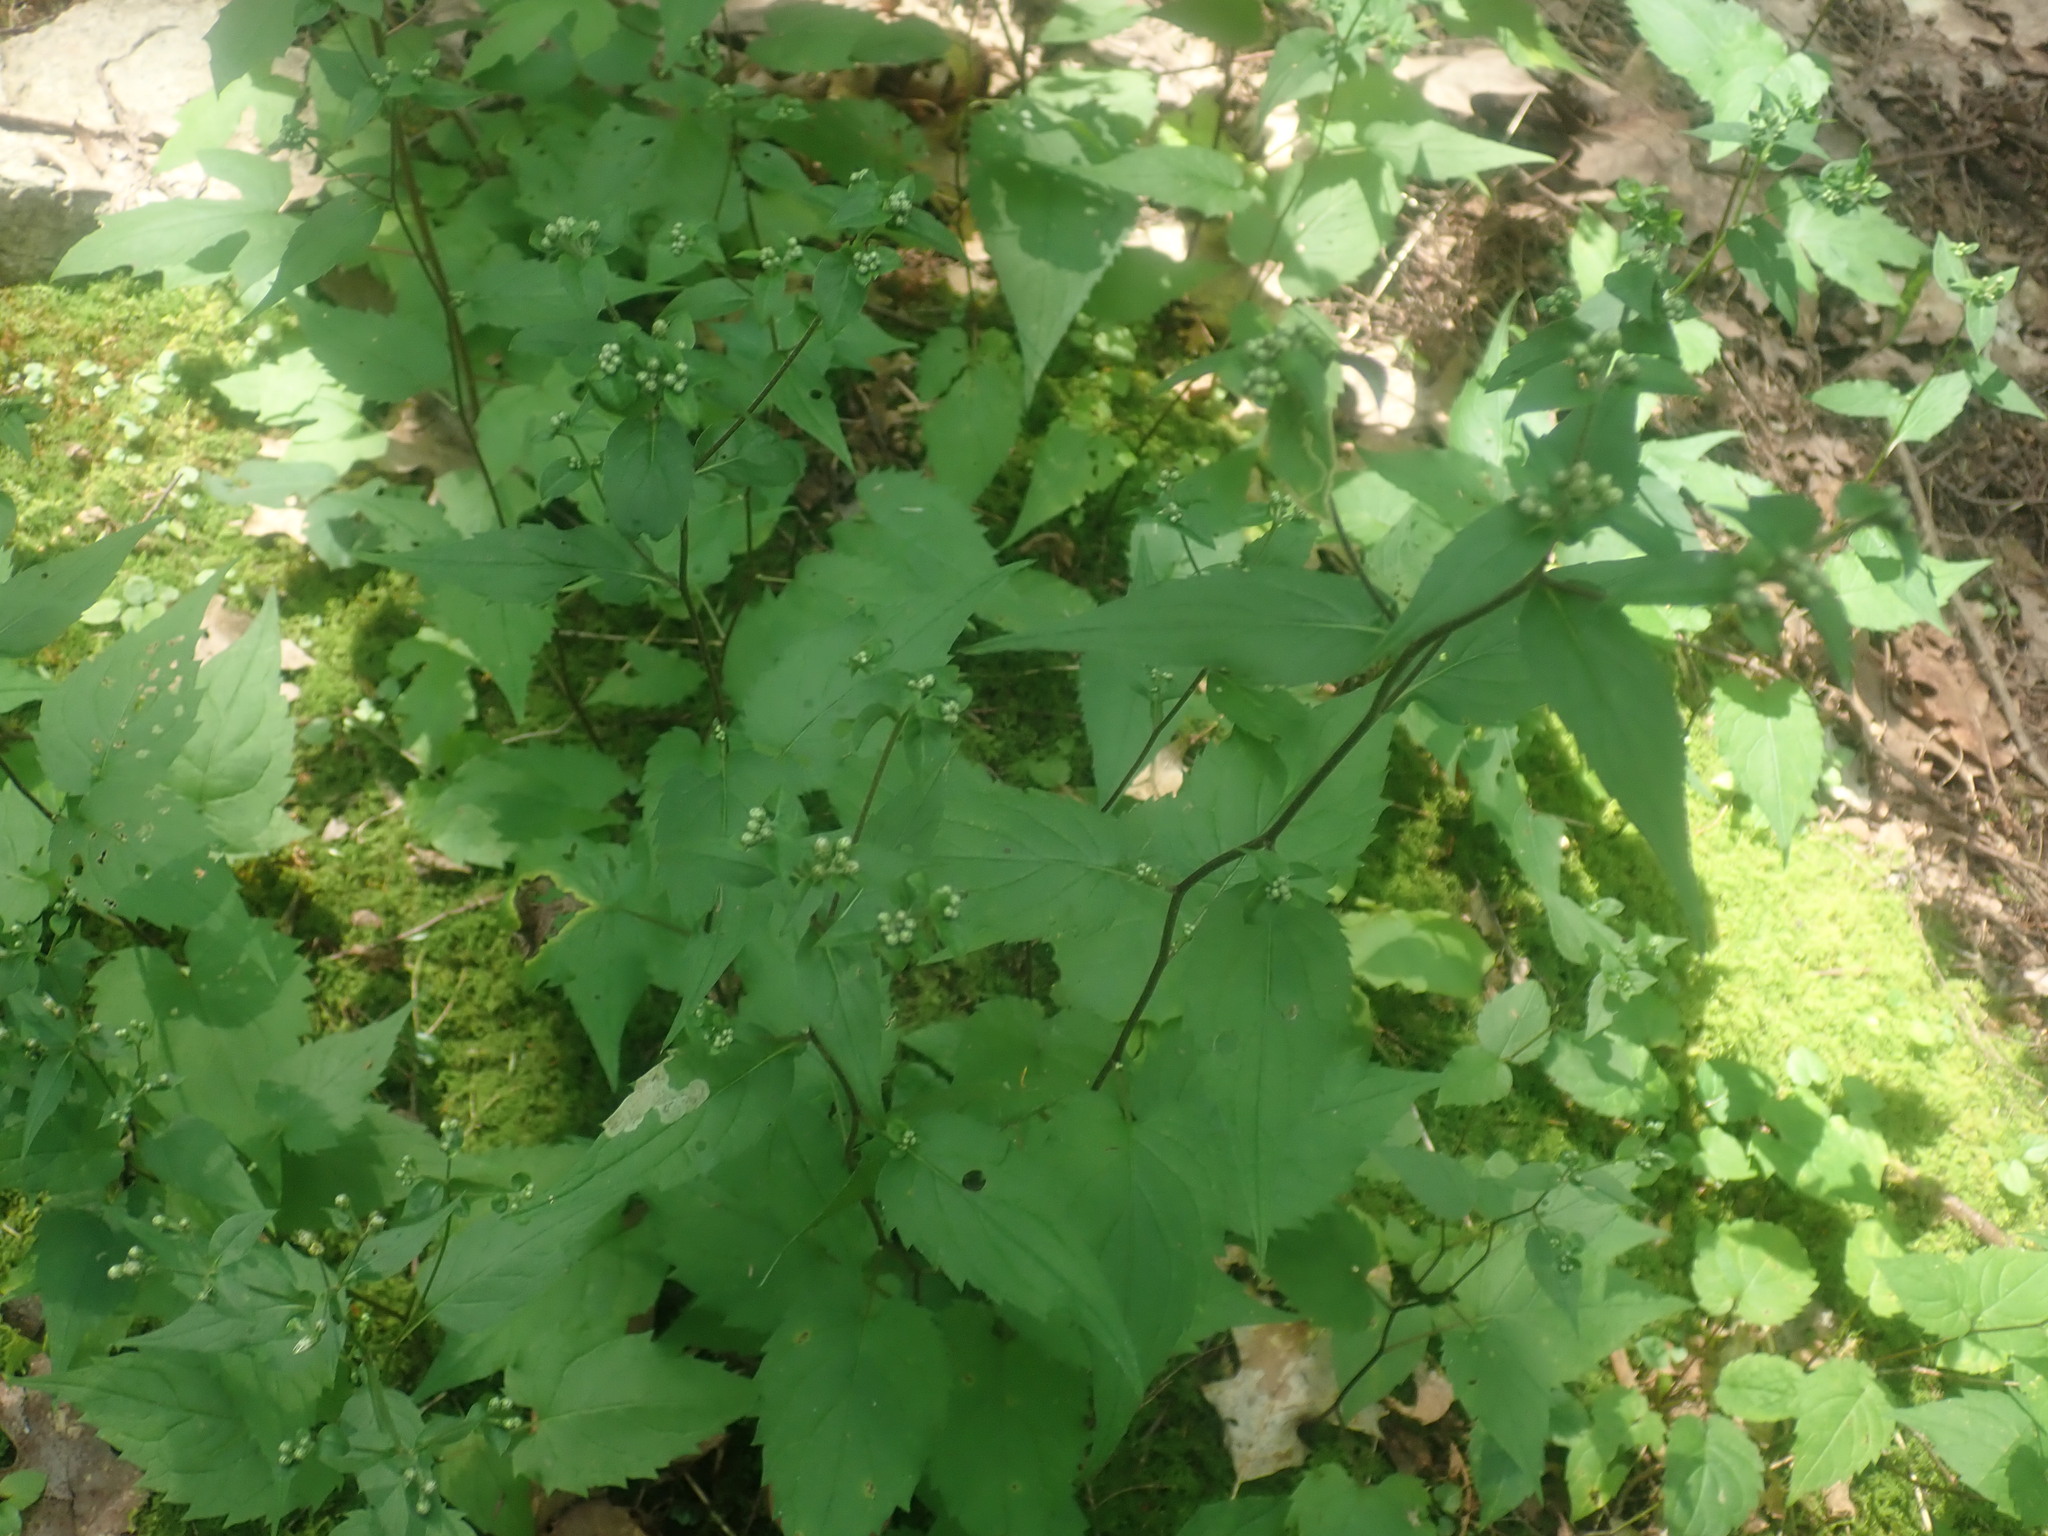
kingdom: Plantae
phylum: Tracheophyta
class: Magnoliopsida
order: Asterales
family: Asteraceae
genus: Eurybia
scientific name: Eurybia divaricata
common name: White wood aster
